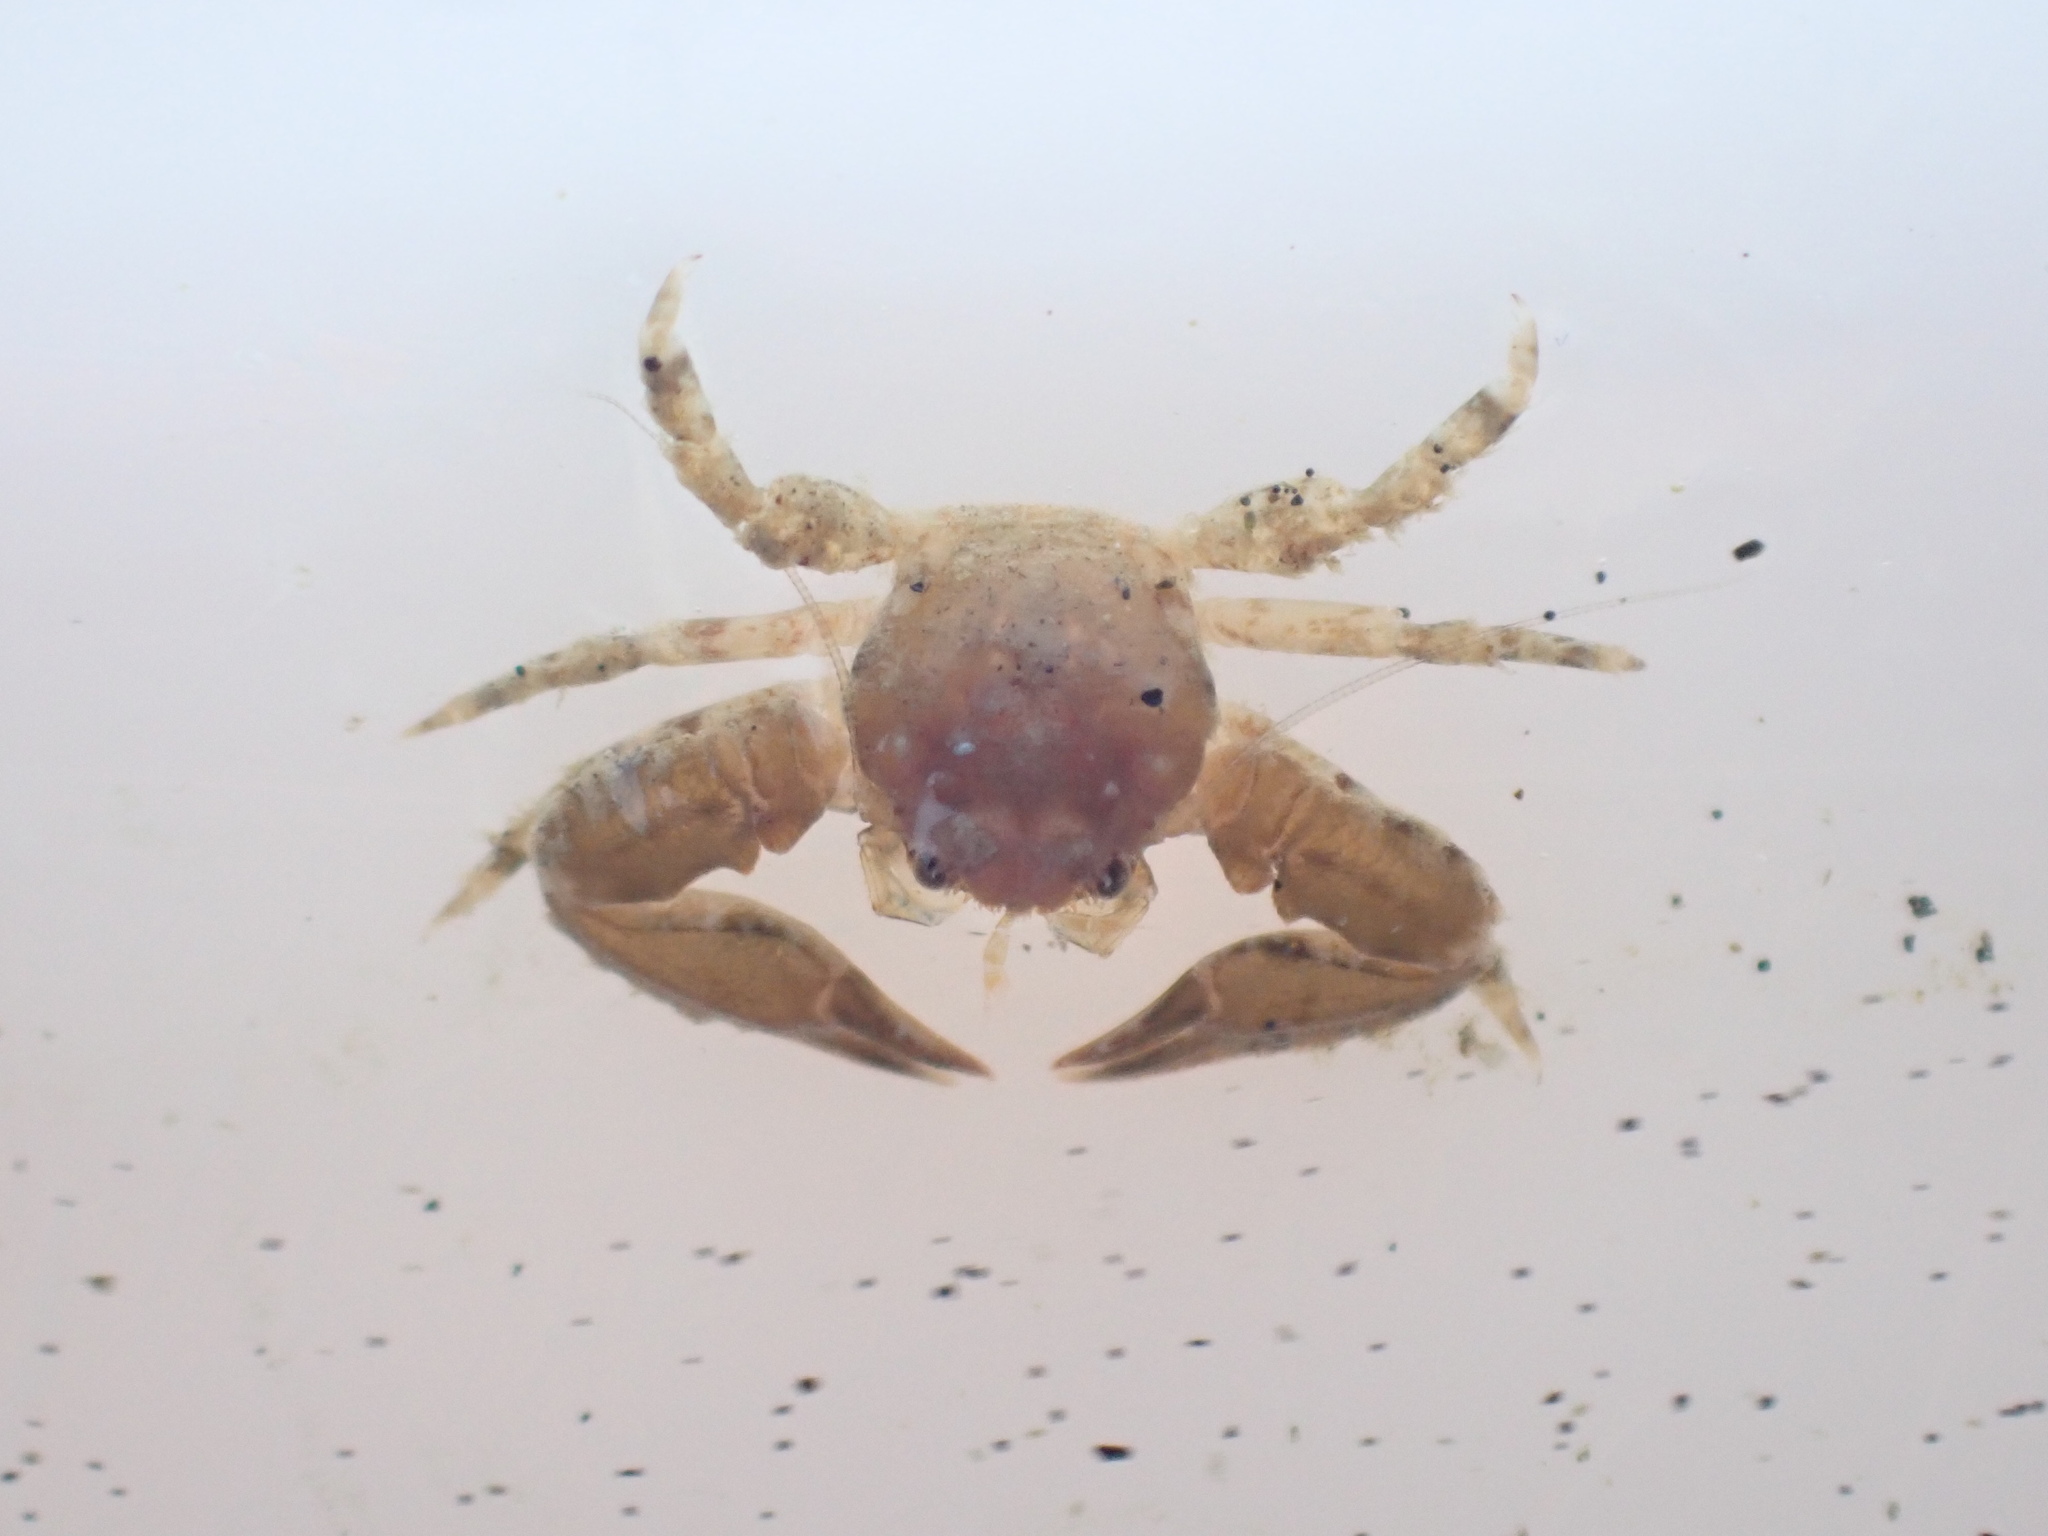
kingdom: Animalia
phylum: Arthropoda
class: Malacostraca
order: Decapoda
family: Porcellanidae
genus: Petrolisthes
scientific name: Petrolisthes elongatus
